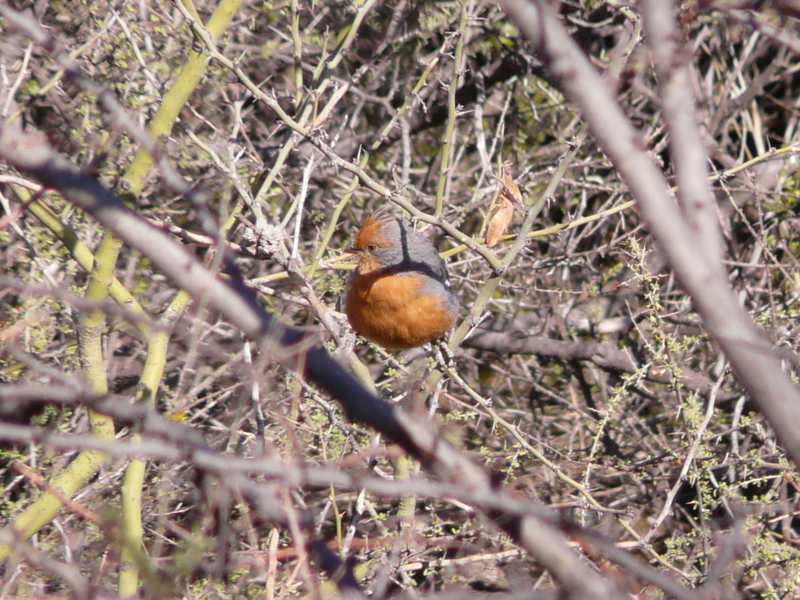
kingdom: Animalia
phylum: Chordata
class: Aves
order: Passeriformes
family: Cotingidae
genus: Phytotoma
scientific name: Phytotoma rutila
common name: White-tipped plantcutter
